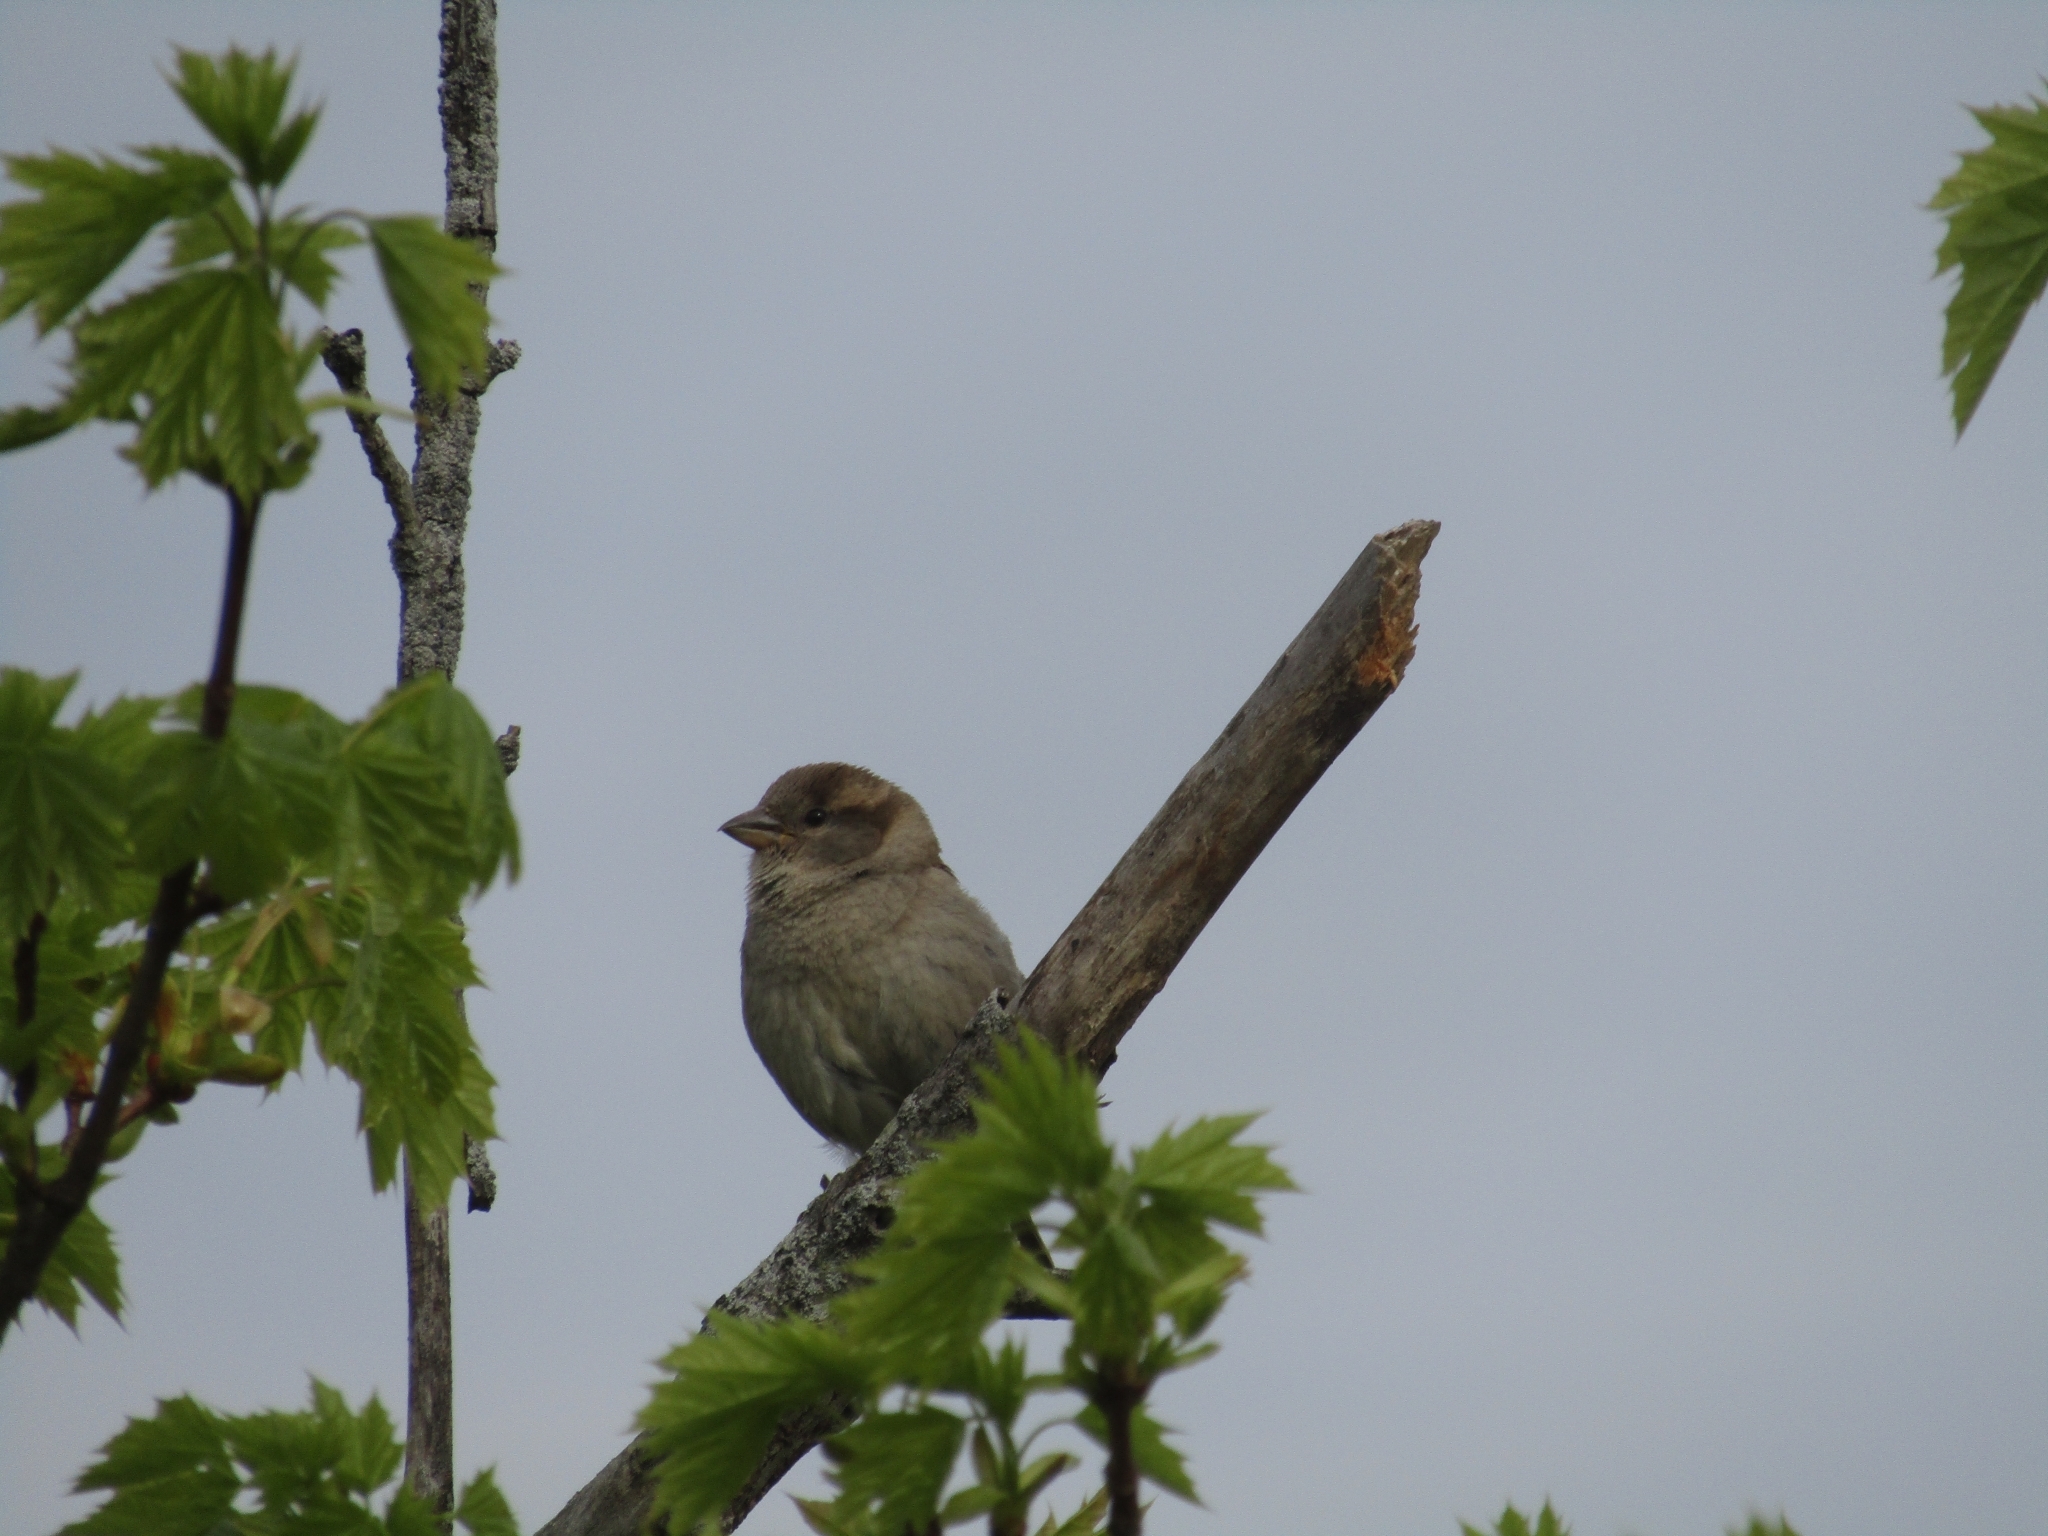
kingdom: Animalia
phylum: Chordata
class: Aves
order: Passeriformes
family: Passeridae
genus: Passer
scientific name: Passer domesticus
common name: House sparrow
